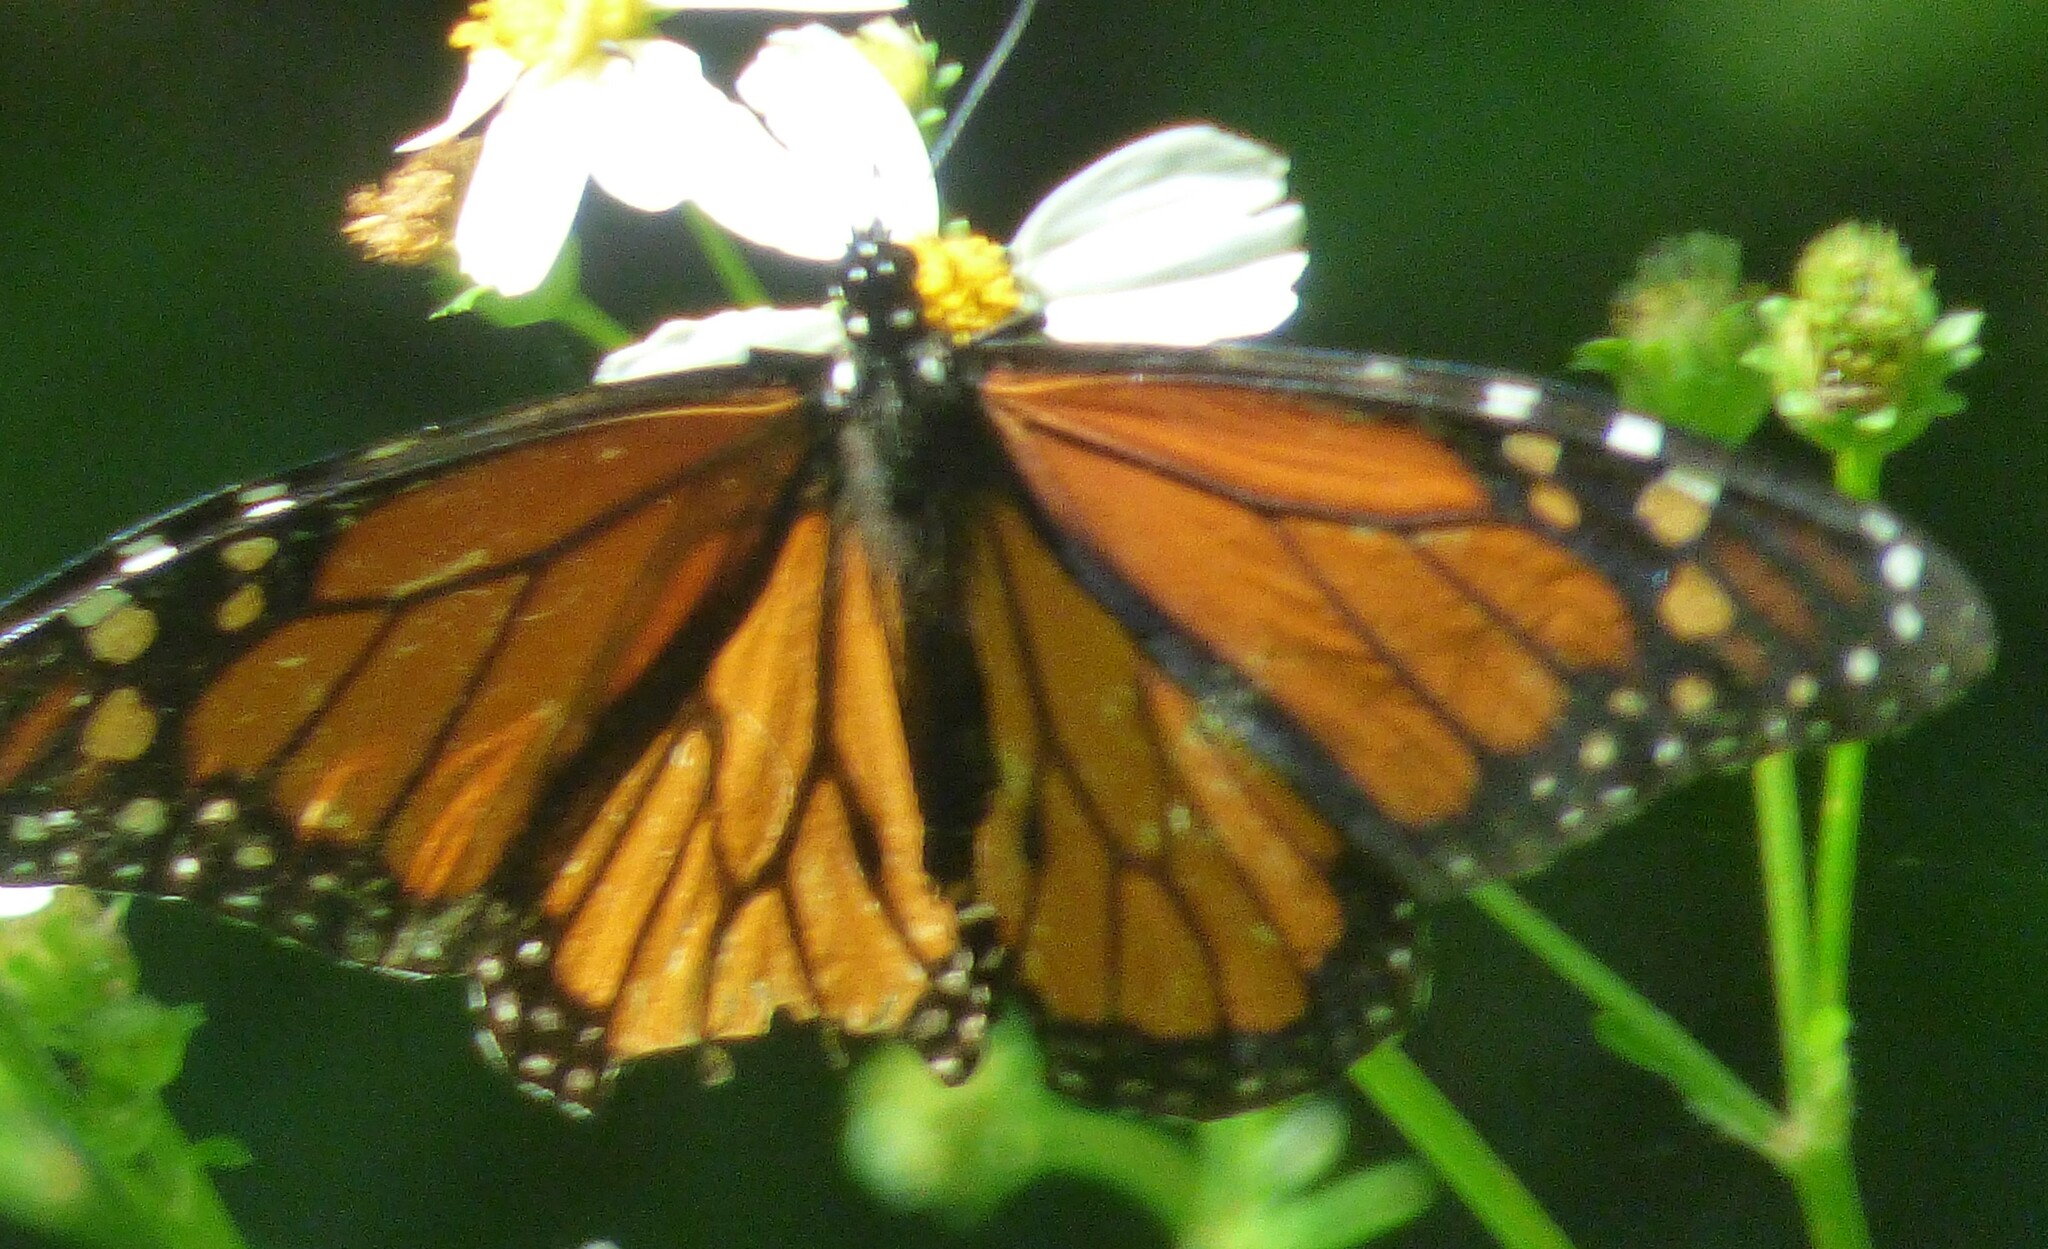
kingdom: Animalia
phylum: Arthropoda
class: Insecta
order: Lepidoptera
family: Nymphalidae
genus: Danaus
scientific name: Danaus plexippus
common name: Monarch
